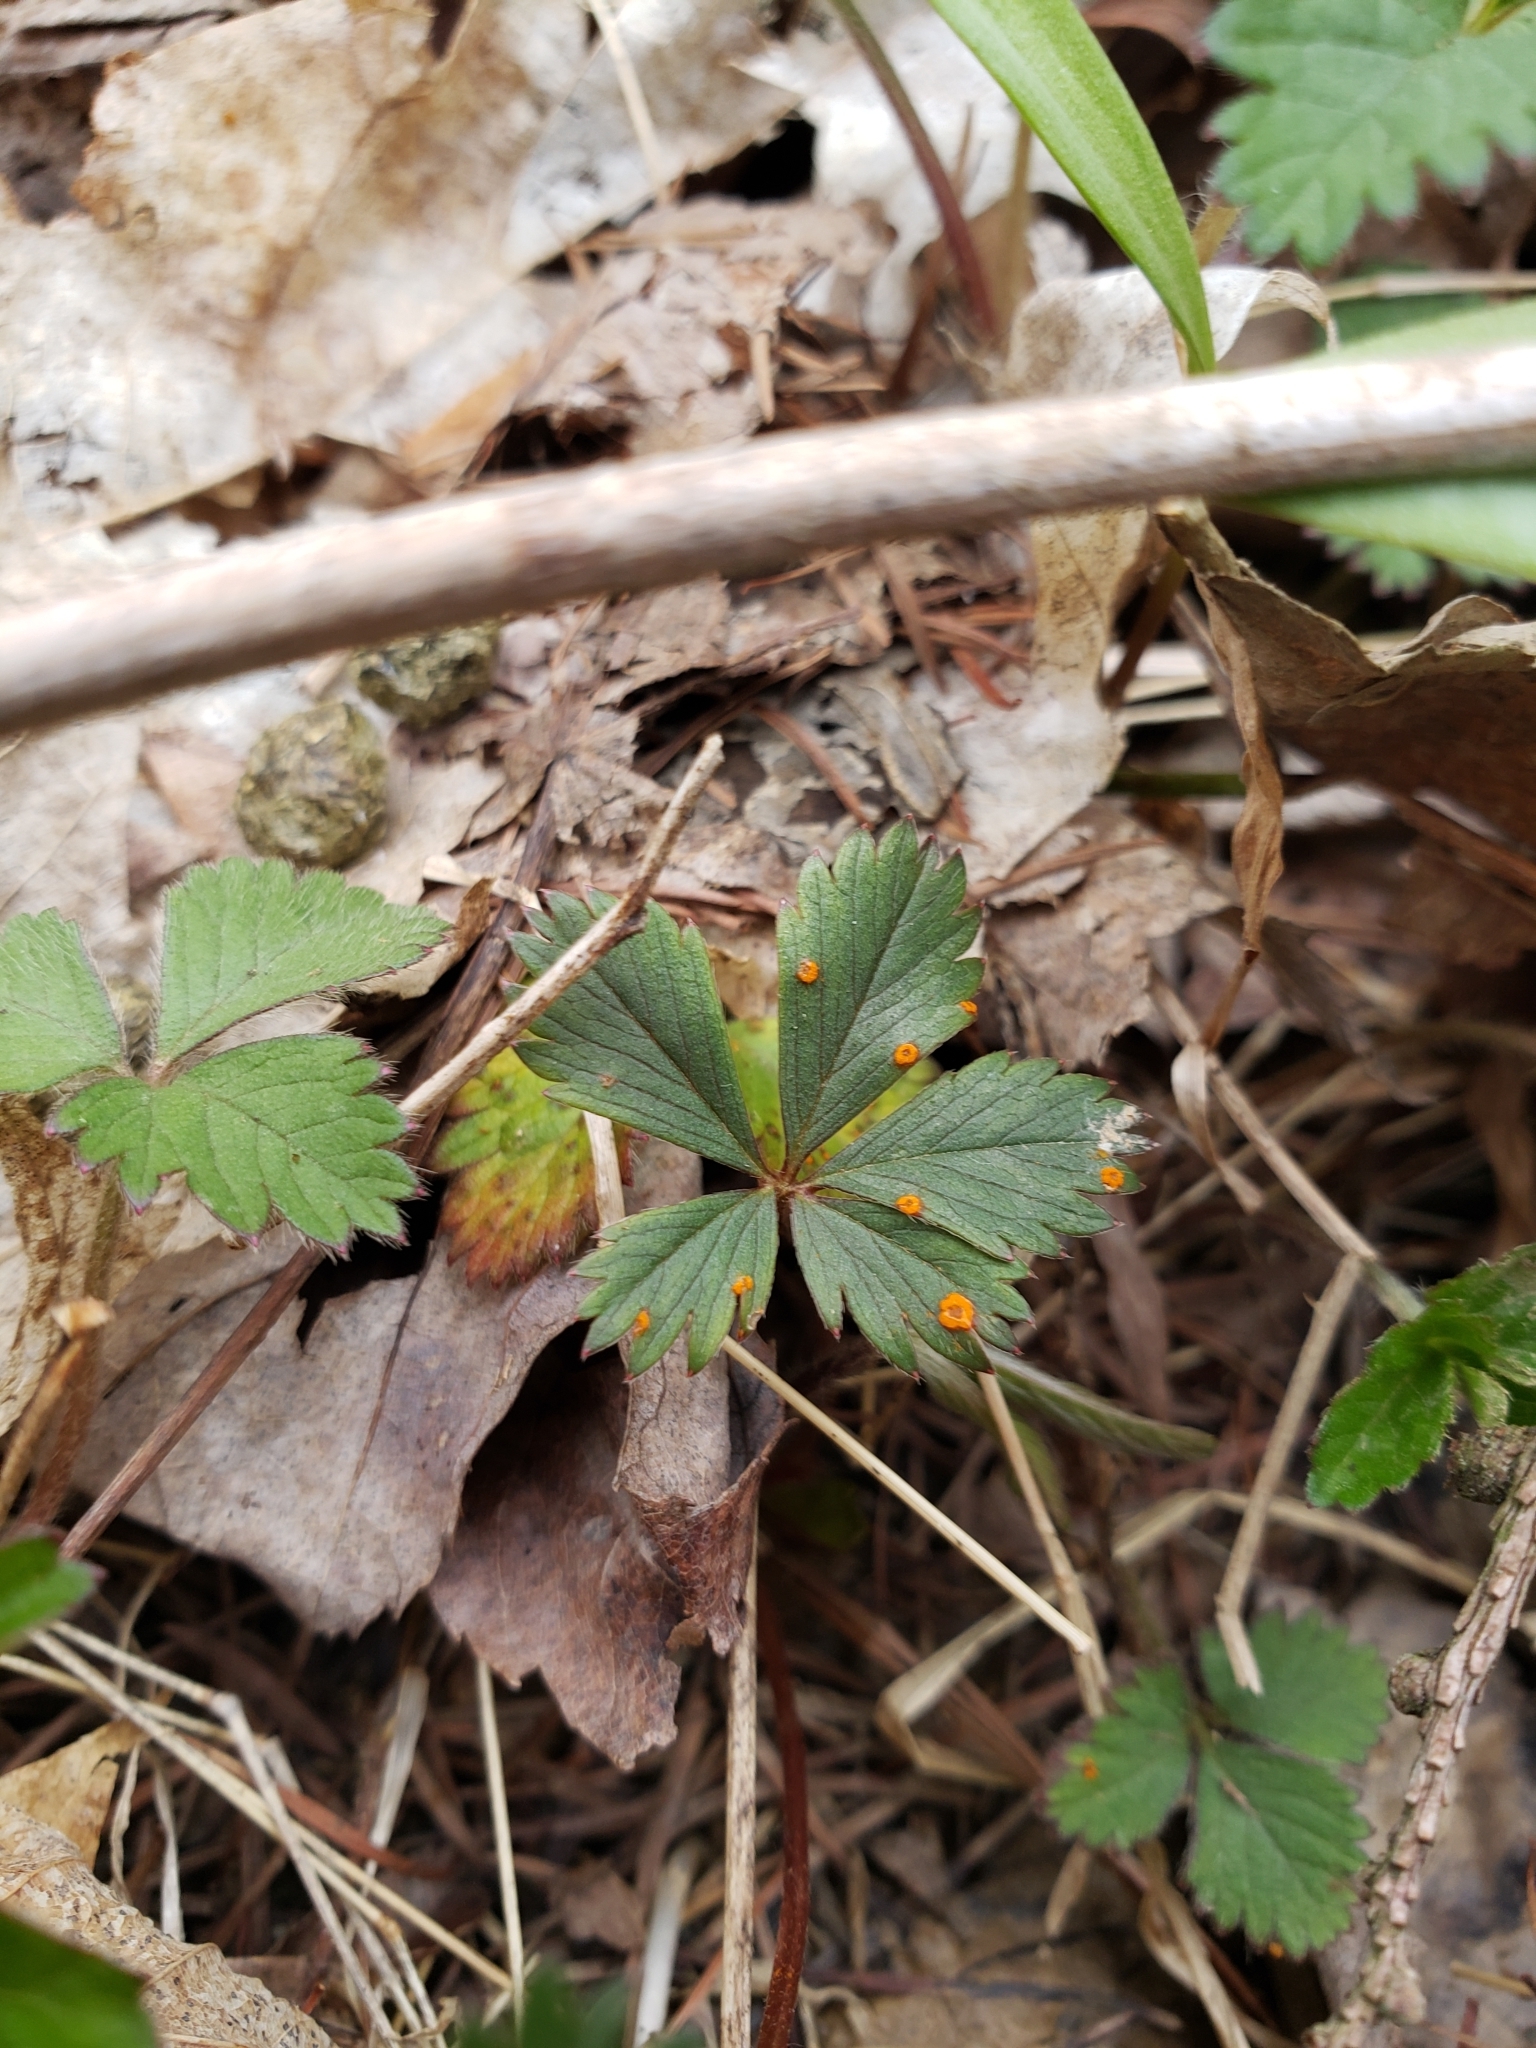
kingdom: Plantae
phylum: Tracheophyta
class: Magnoliopsida
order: Rosales
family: Rosaceae
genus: Potentilla
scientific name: Potentilla canadensis
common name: Canada cinquefoil
